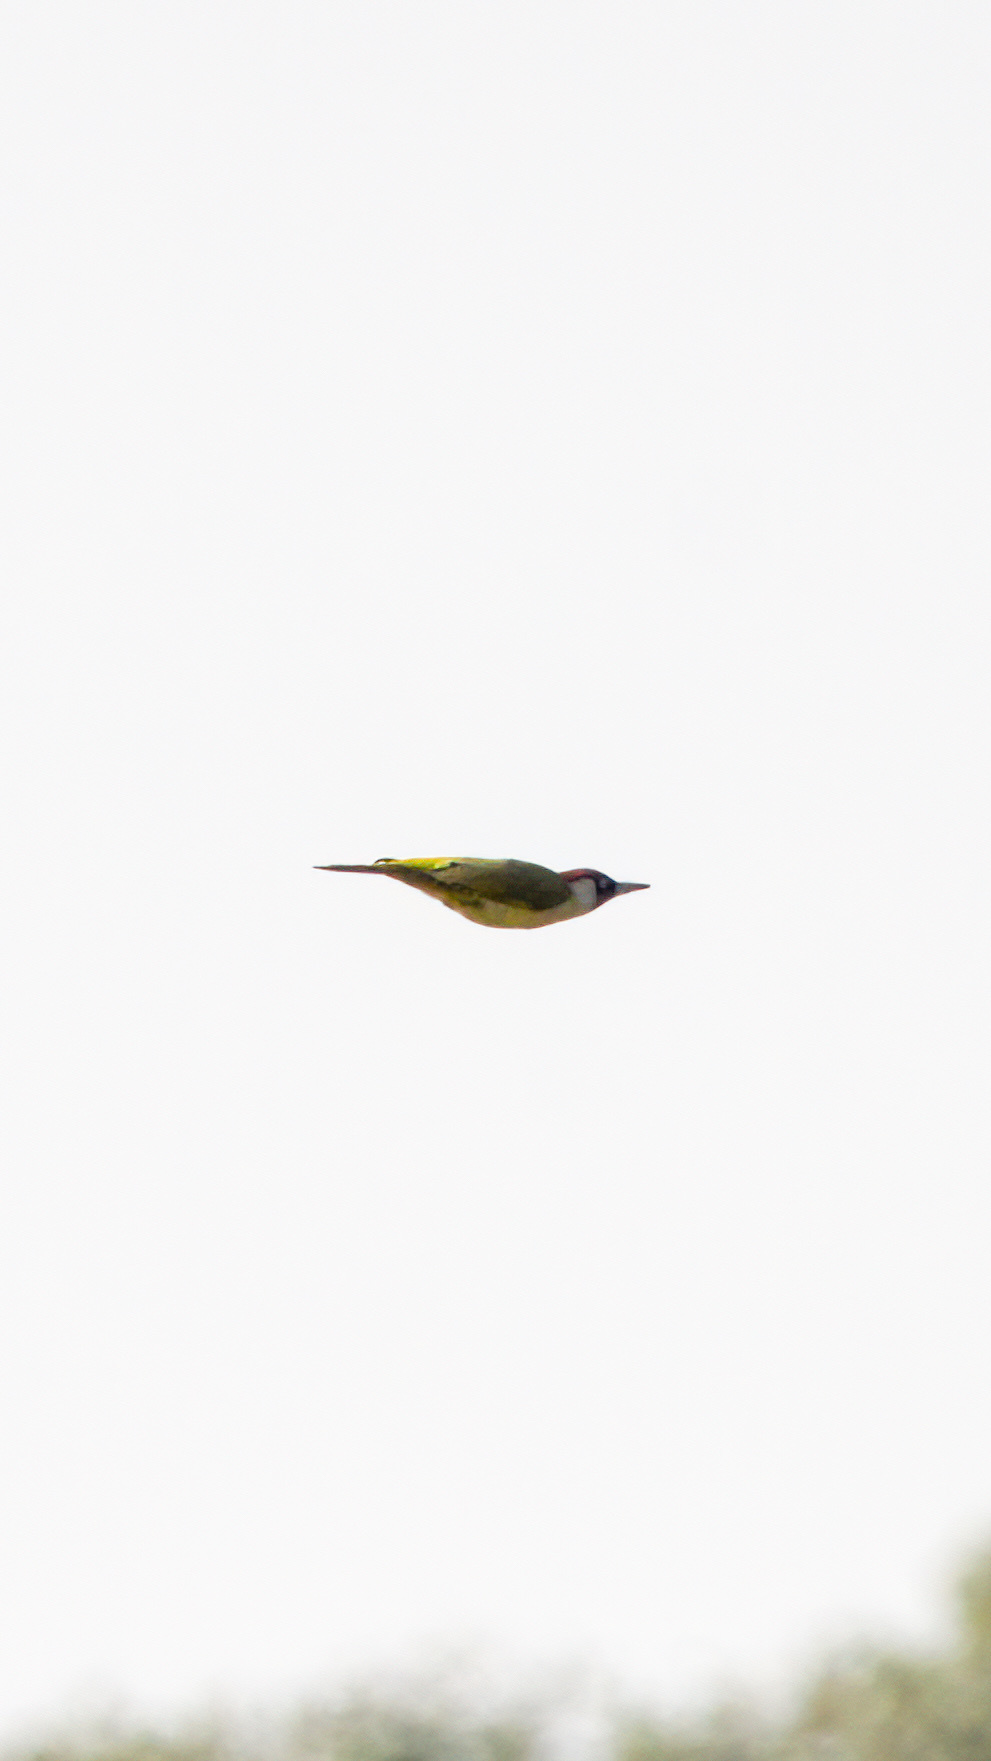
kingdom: Animalia
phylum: Chordata
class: Aves
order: Piciformes
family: Picidae
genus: Picus
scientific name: Picus viridis
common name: European green woodpecker
